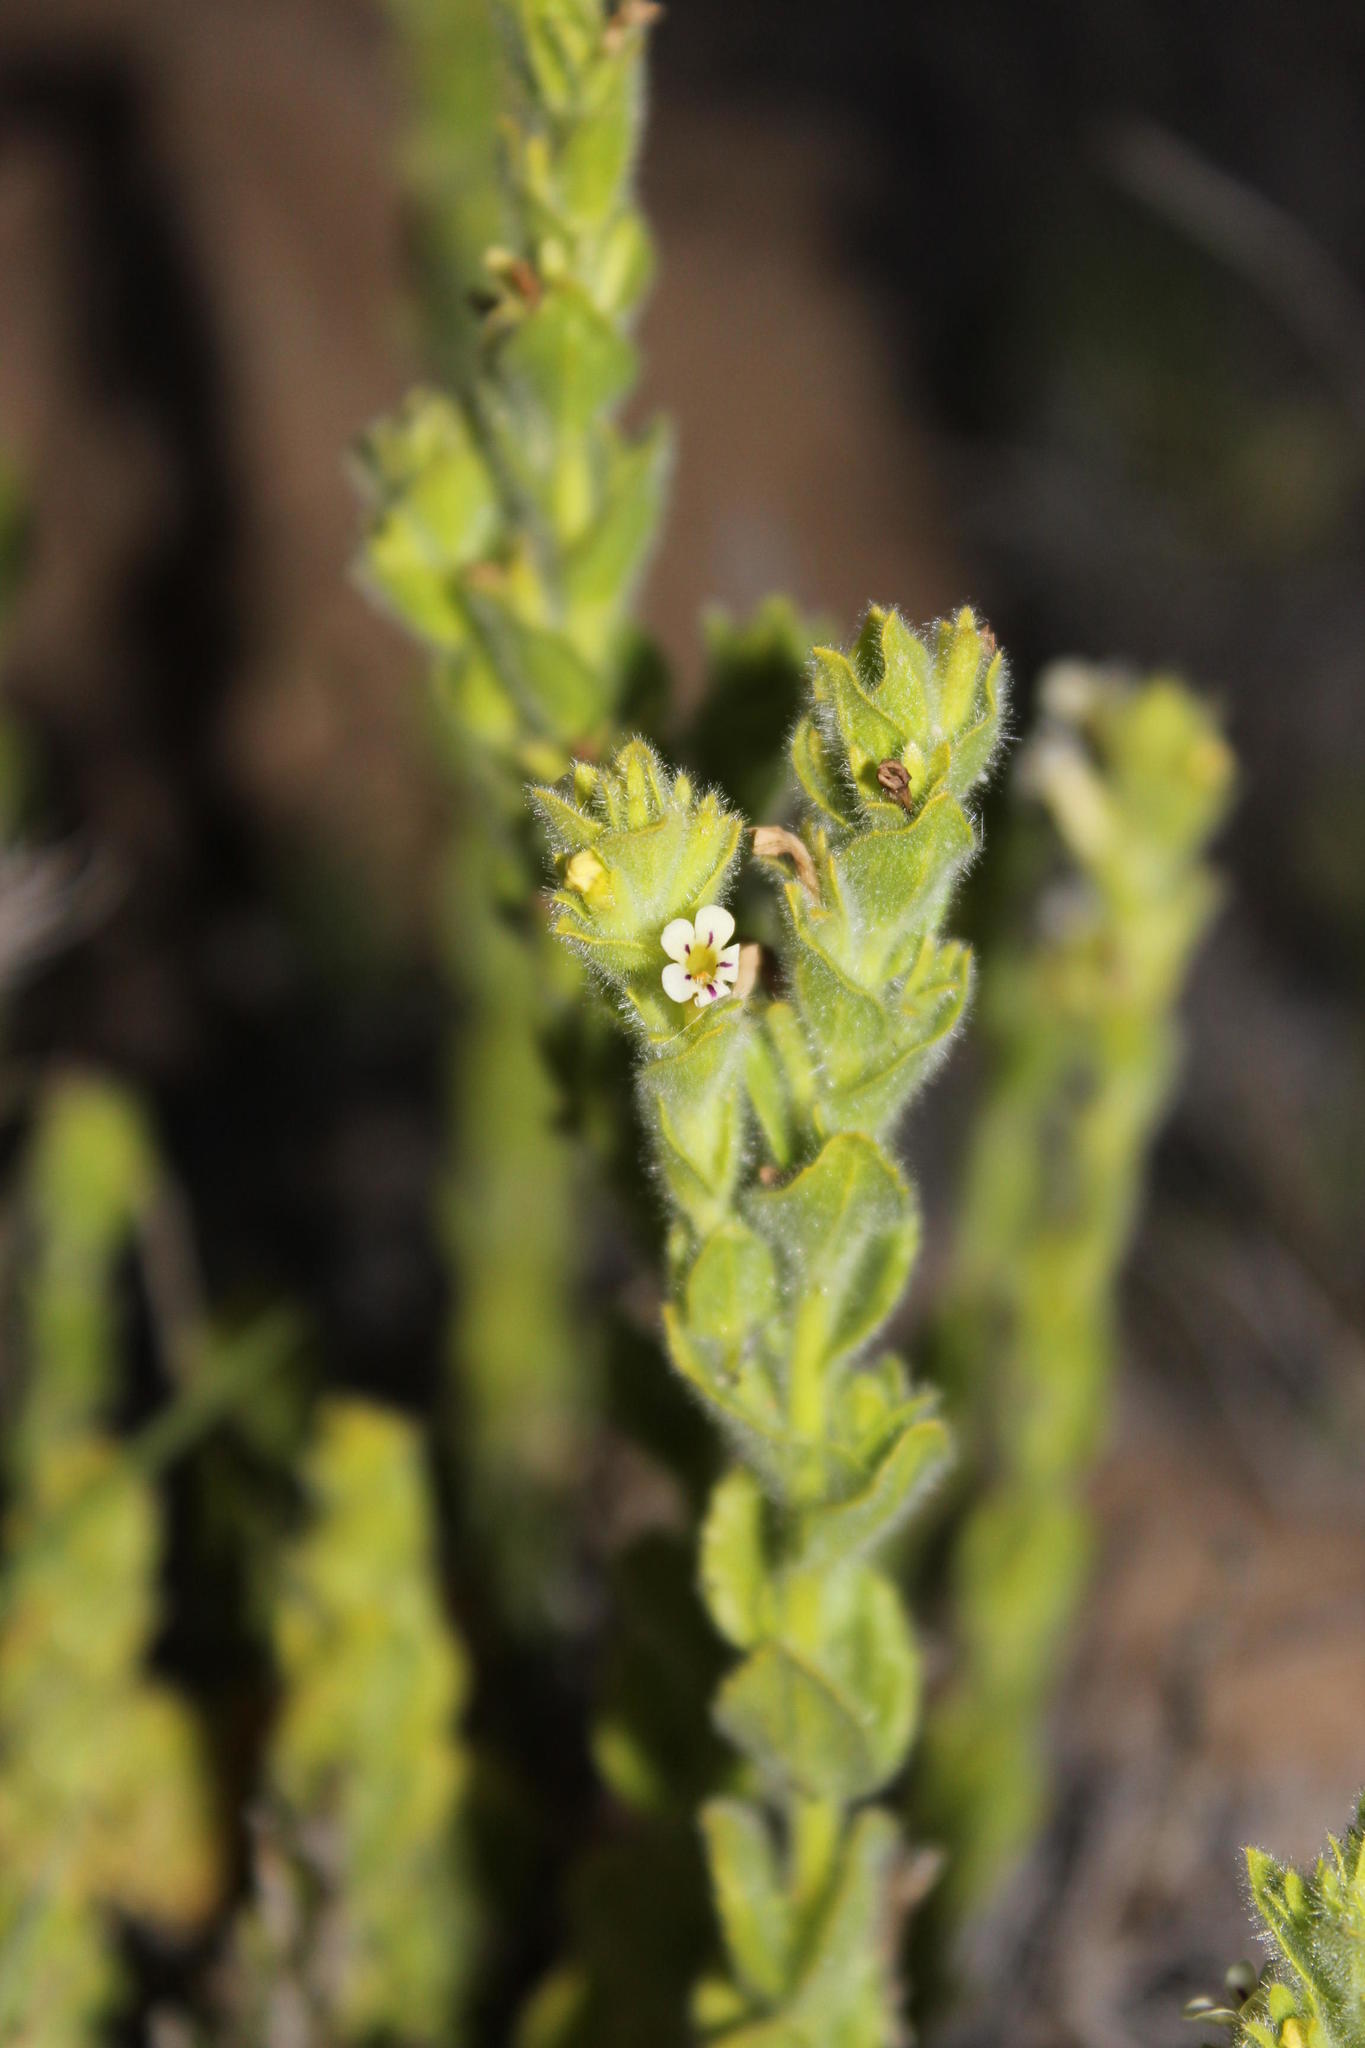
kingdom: Plantae
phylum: Tracheophyta
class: Magnoliopsida
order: Lamiales
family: Scrophulariaceae
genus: Jamesbrittenia
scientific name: Jamesbrittenia amplexicaulis
